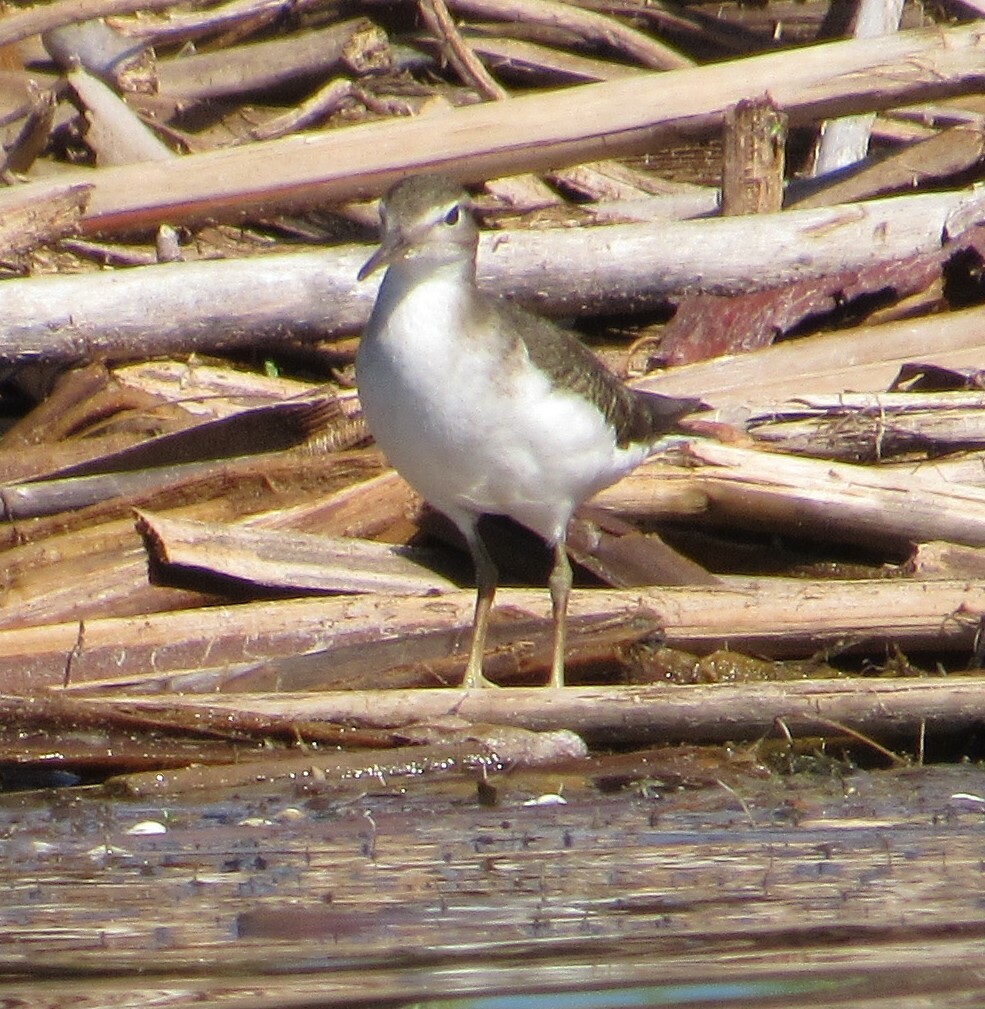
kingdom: Animalia
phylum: Chordata
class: Aves
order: Charadriiformes
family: Scolopacidae
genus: Actitis
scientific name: Actitis macularius
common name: Spotted sandpiper
